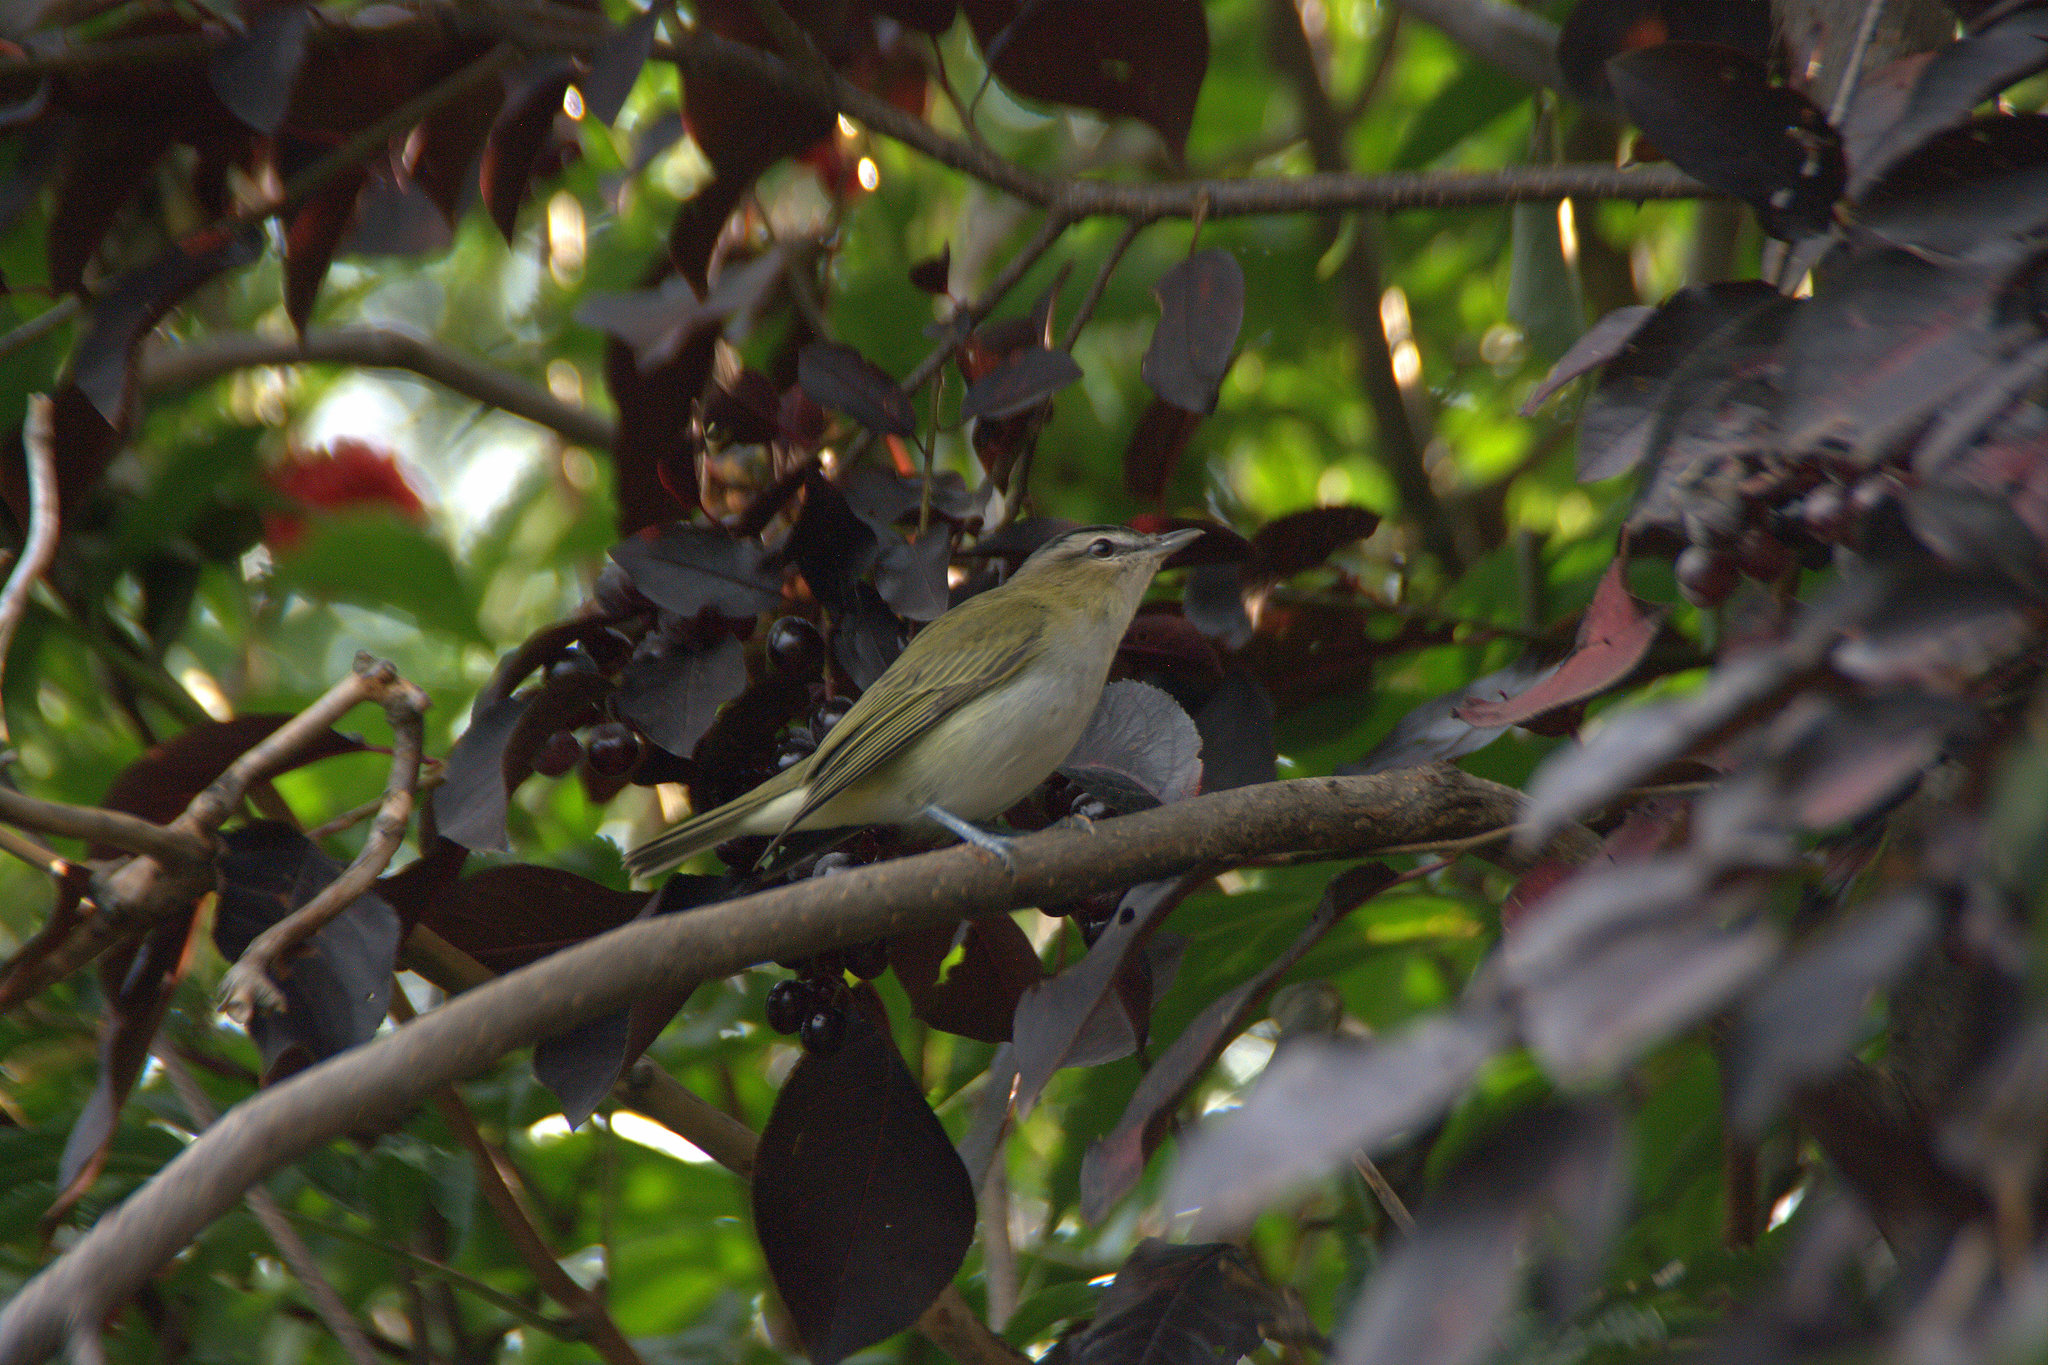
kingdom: Animalia
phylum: Chordata
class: Aves
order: Passeriformes
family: Vireonidae
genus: Vireo
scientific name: Vireo olivaceus
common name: Red-eyed vireo
